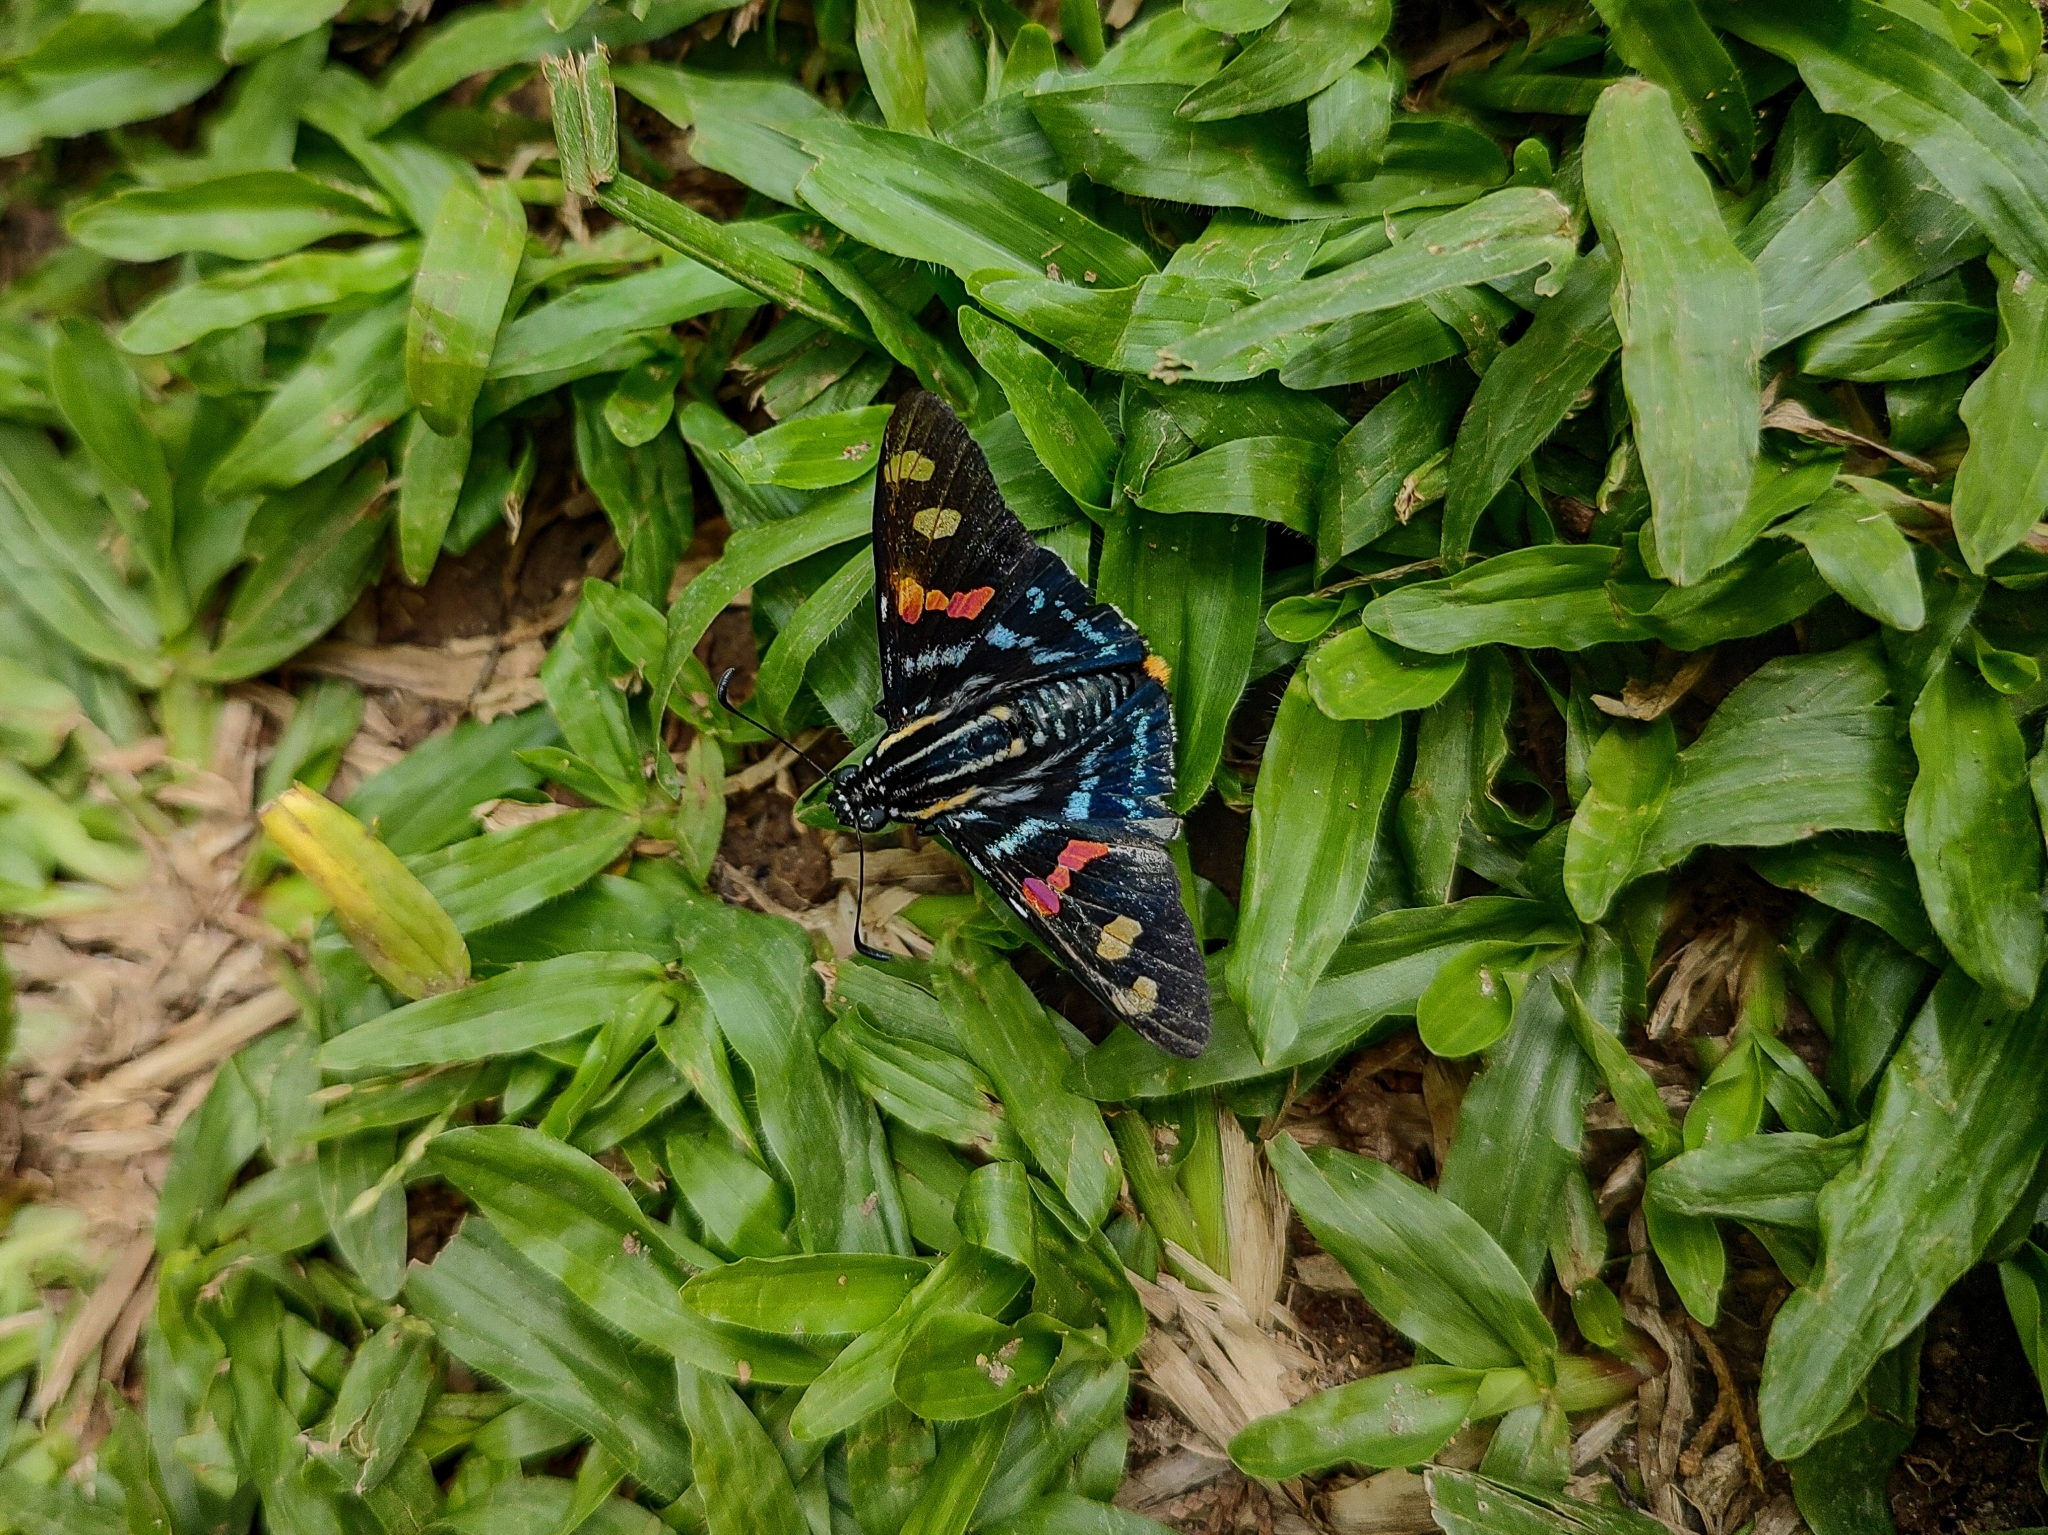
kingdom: Animalia
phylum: Arthropoda
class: Insecta
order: Lepidoptera
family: Hesperiidae
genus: Mimoniades
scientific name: Mimoniades versicolor
